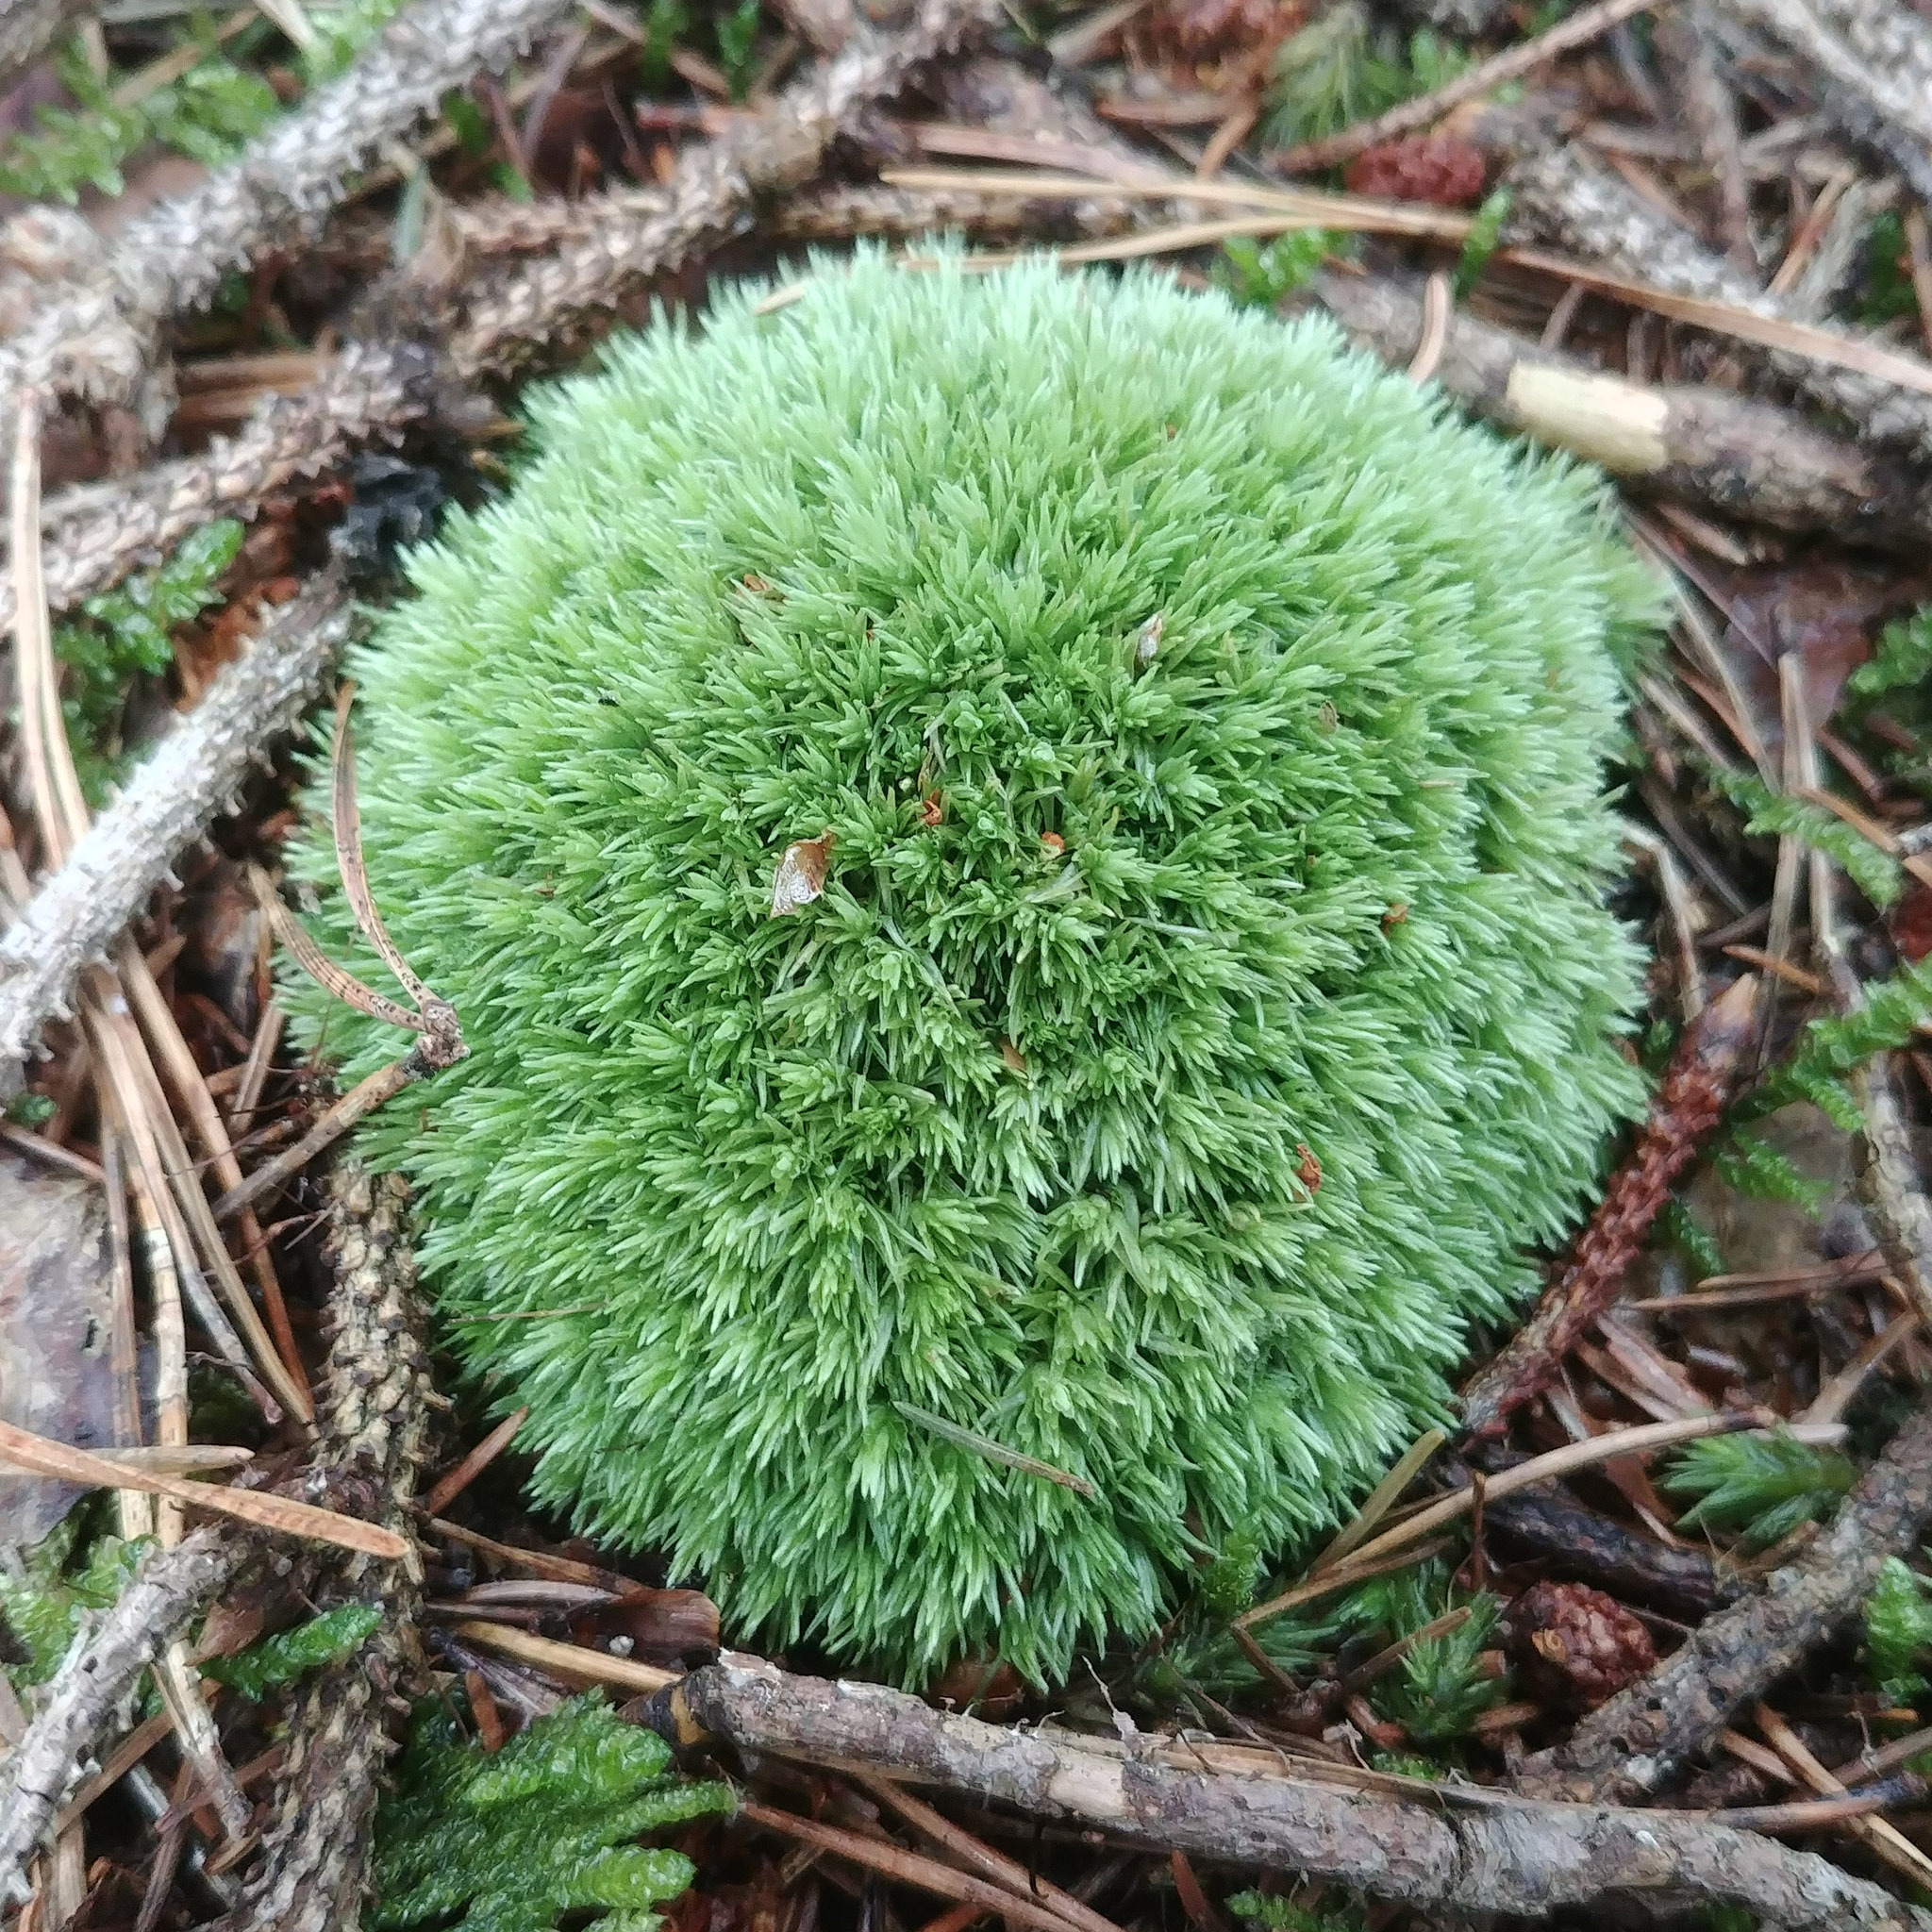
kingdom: Plantae
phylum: Bryophyta
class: Bryopsida
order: Dicranales
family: Leucobryaceae
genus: Leucobryum
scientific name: Leucobryum glaucum
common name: Large white-moss
